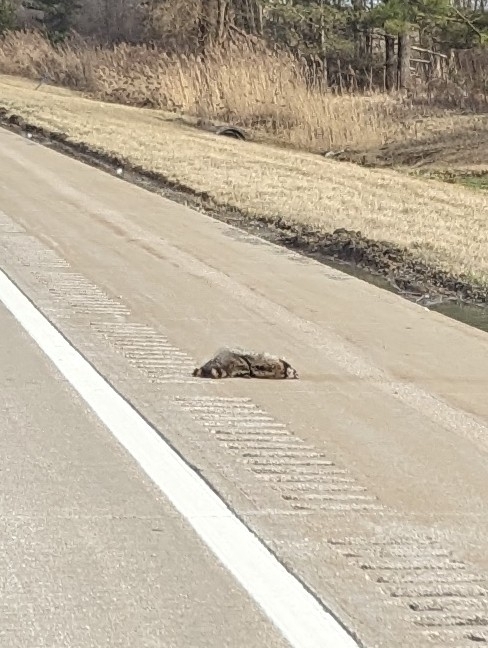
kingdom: Animalia
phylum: Chordata
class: Mammalia
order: Carnivora
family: Procyonidae
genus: Procyon
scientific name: Procyon lotor
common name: Raccoon
